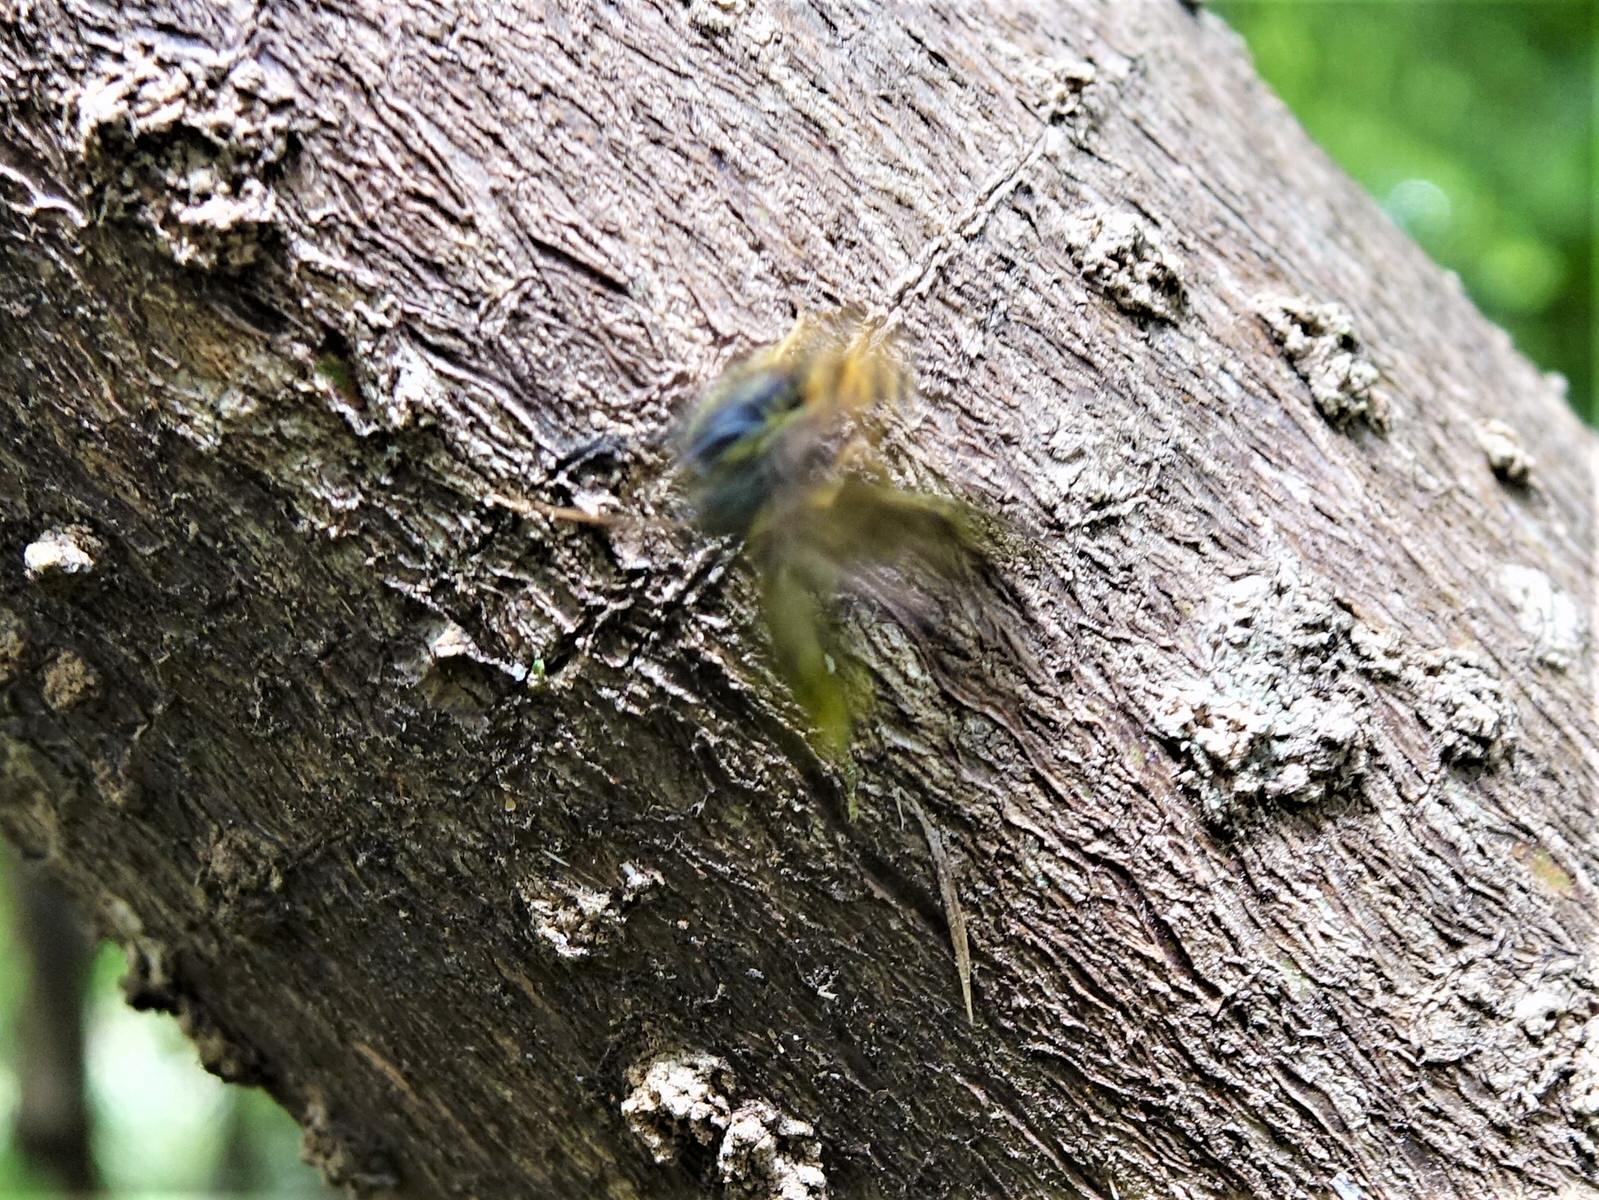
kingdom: Animalia
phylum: Arthropoda
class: Insecta
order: Hymenoptera
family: Vespidae
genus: Vespula
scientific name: Vespula
